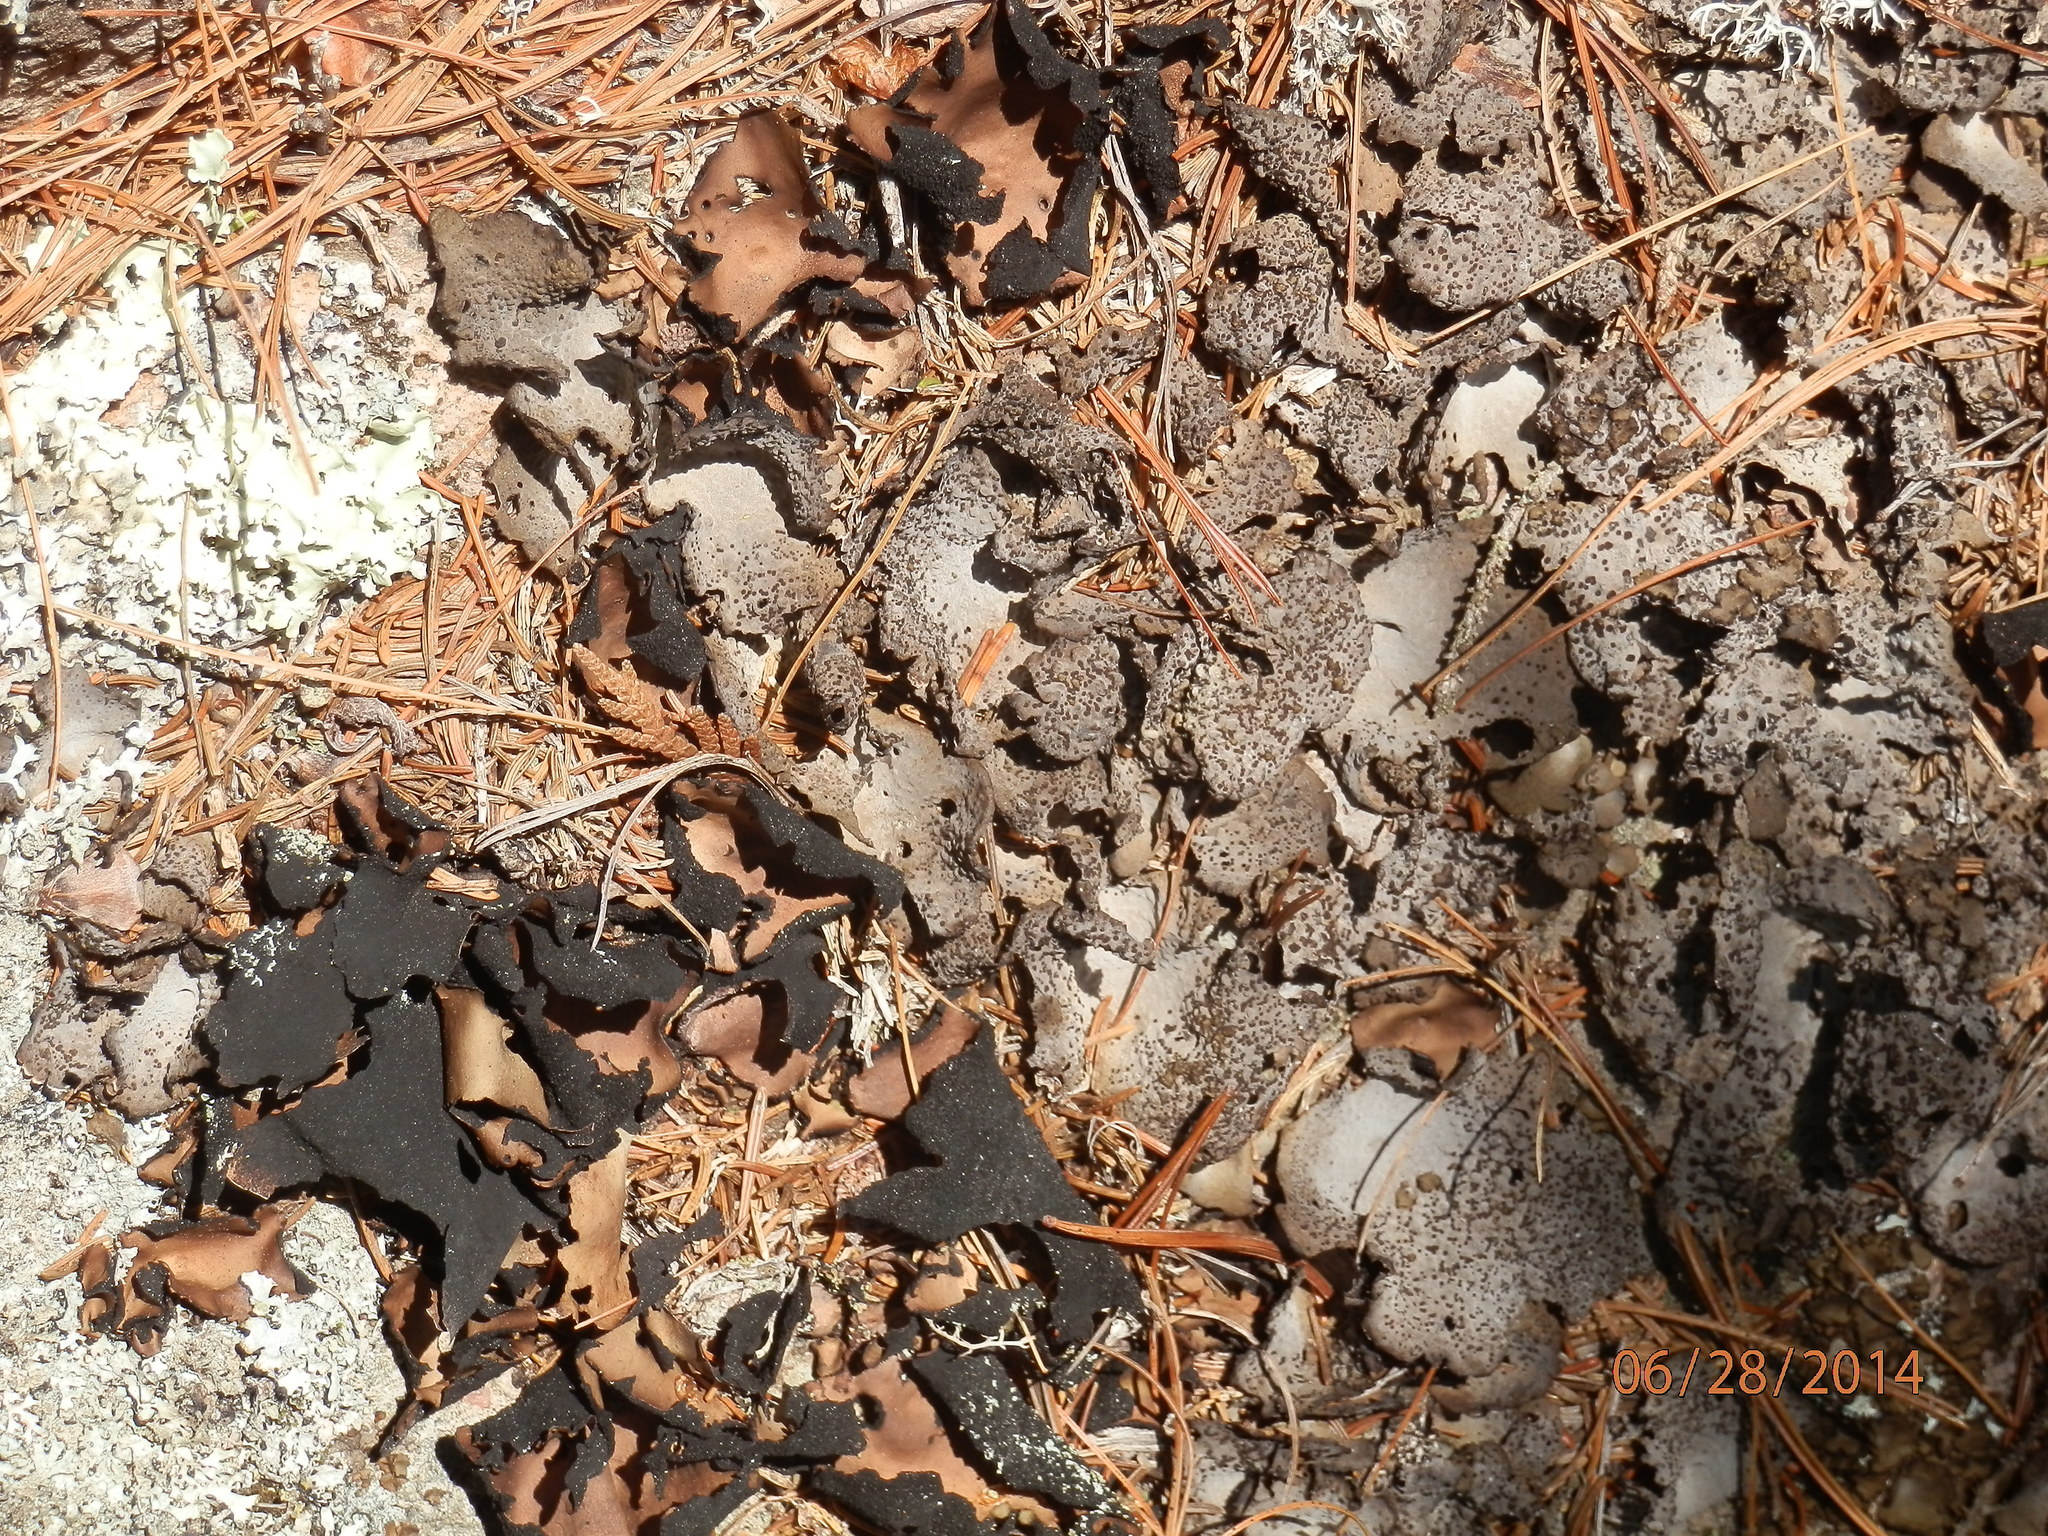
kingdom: Fungi
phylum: Ascomycota
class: Lecanoromycetes
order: Umbilicariales
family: Umbilicariaceae
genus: Umbilicaria
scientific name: Umbilicaria mammulata
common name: Smooth rock tripe
